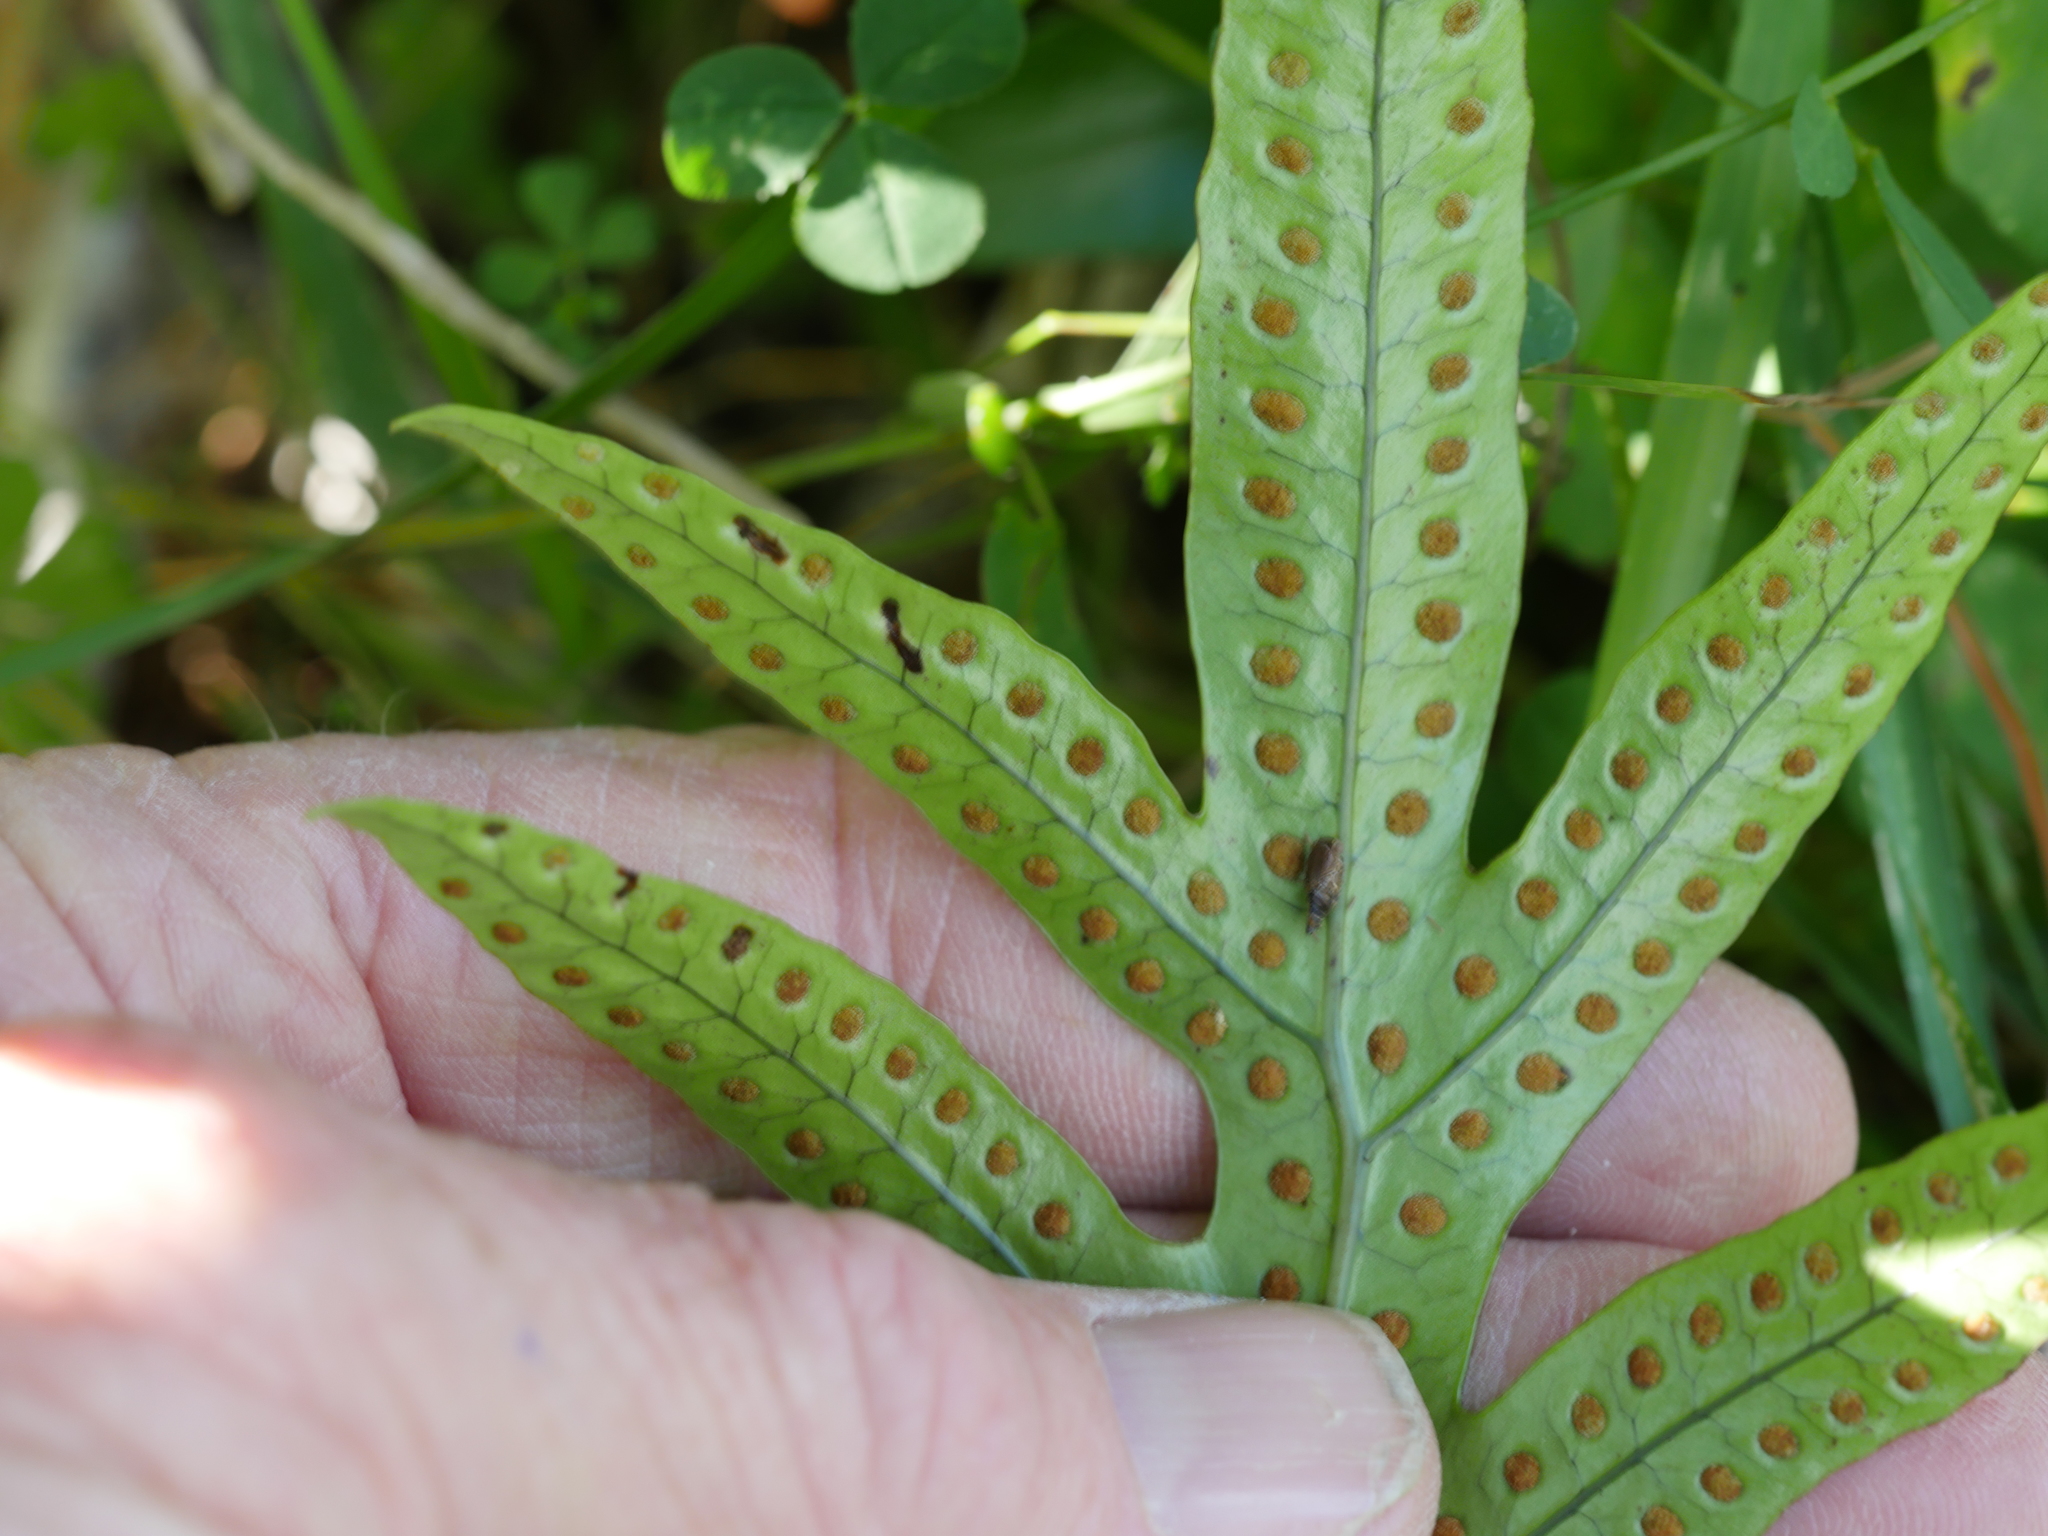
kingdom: Plantae
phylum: Tracheophyta
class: Polypodiopsida
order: Polypodiales
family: Polypodiaceae
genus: Lecanopteris
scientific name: Lecanopteris pustulata
